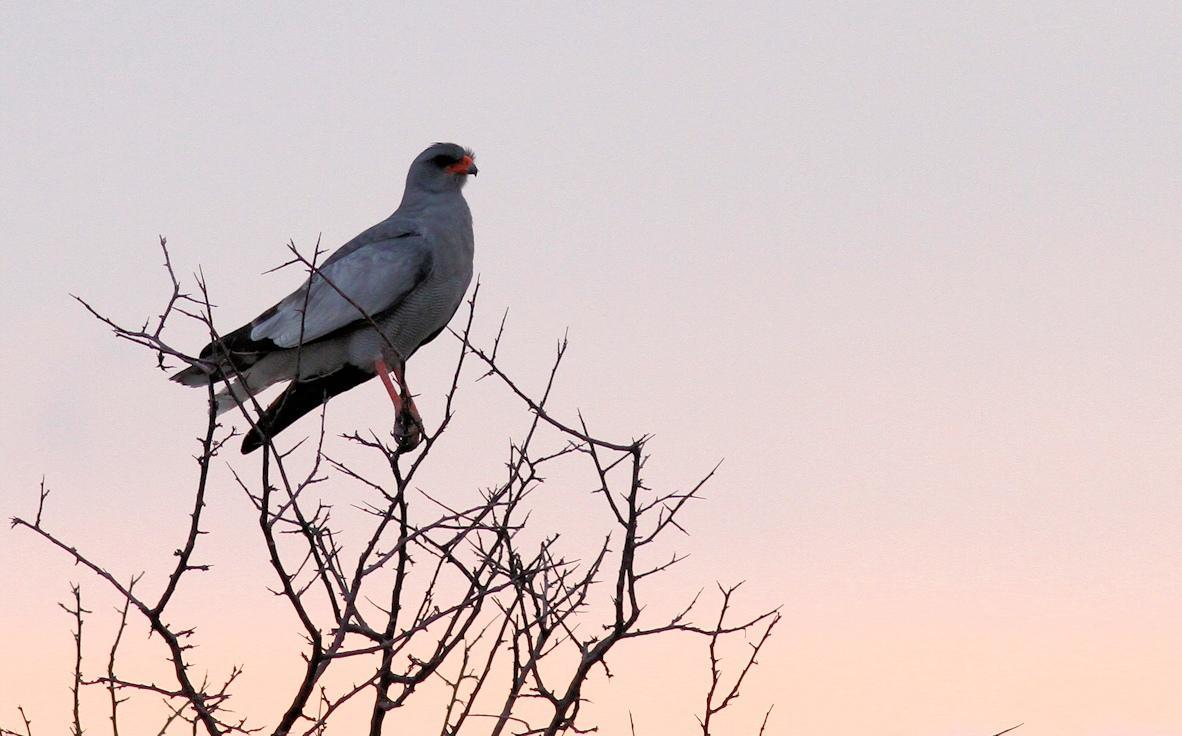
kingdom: Animalia
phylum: Chordata
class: Aves
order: Accipitriformes
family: Accipitridae
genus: Melierax
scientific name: Melierax canorus
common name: Pale chanting-goshawk
